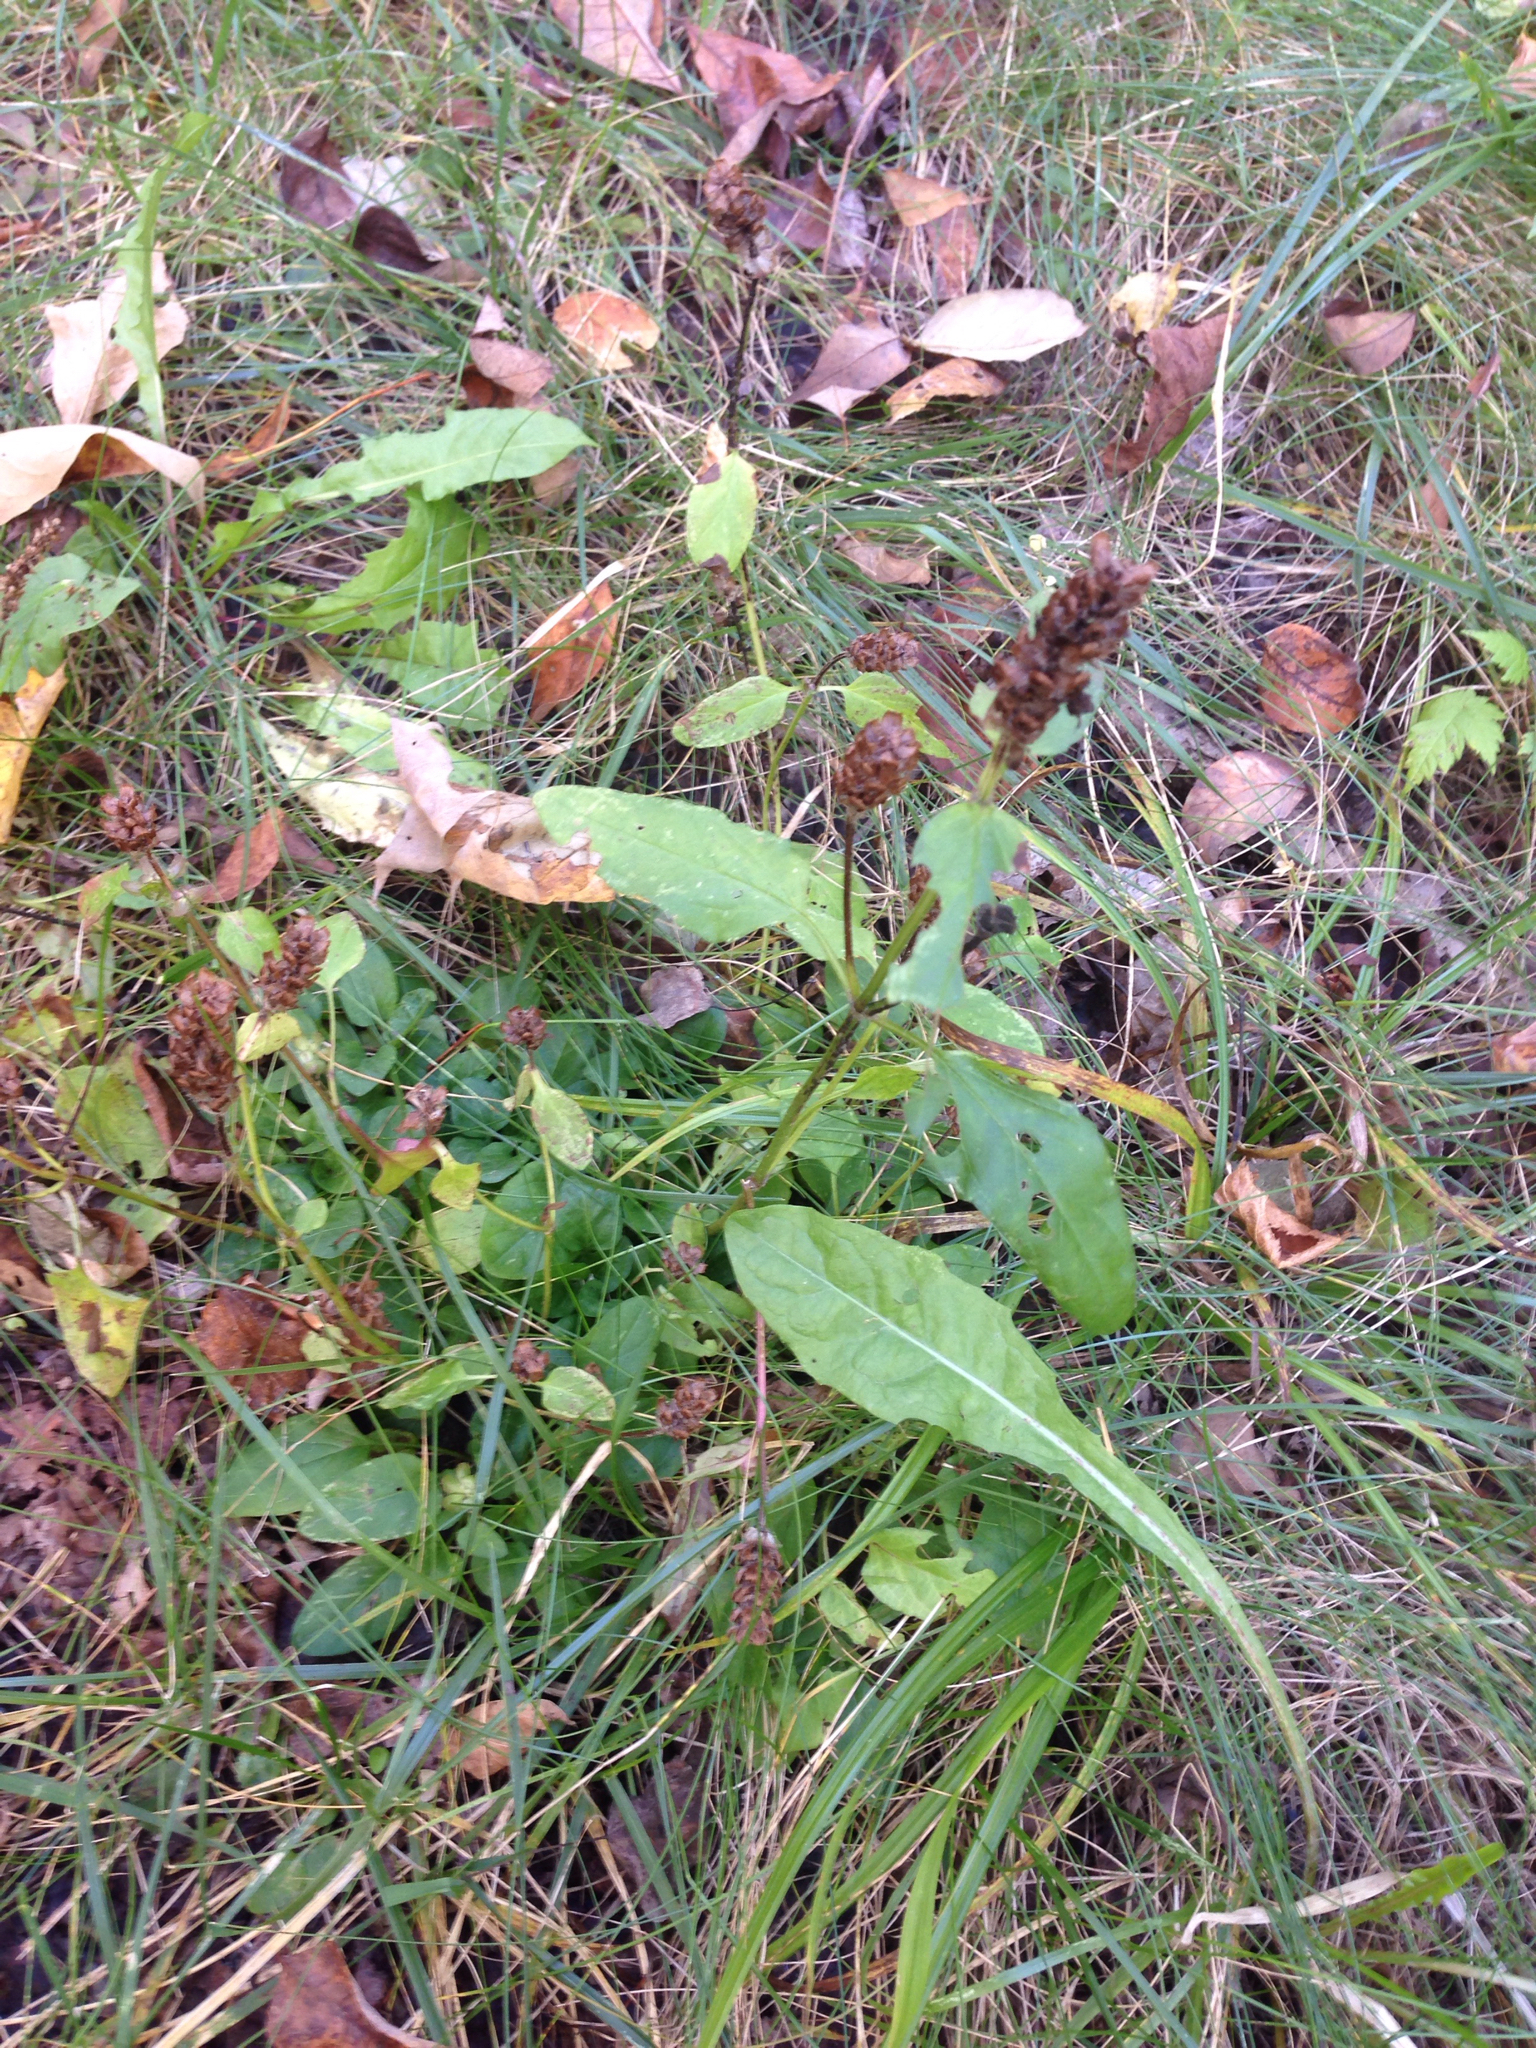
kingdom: Plantae
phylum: Tracheophyta
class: Magnoliopsida
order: Lamiales
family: Lamiaceae
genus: Prunella
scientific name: Prunella vulgaris
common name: Heal-all
